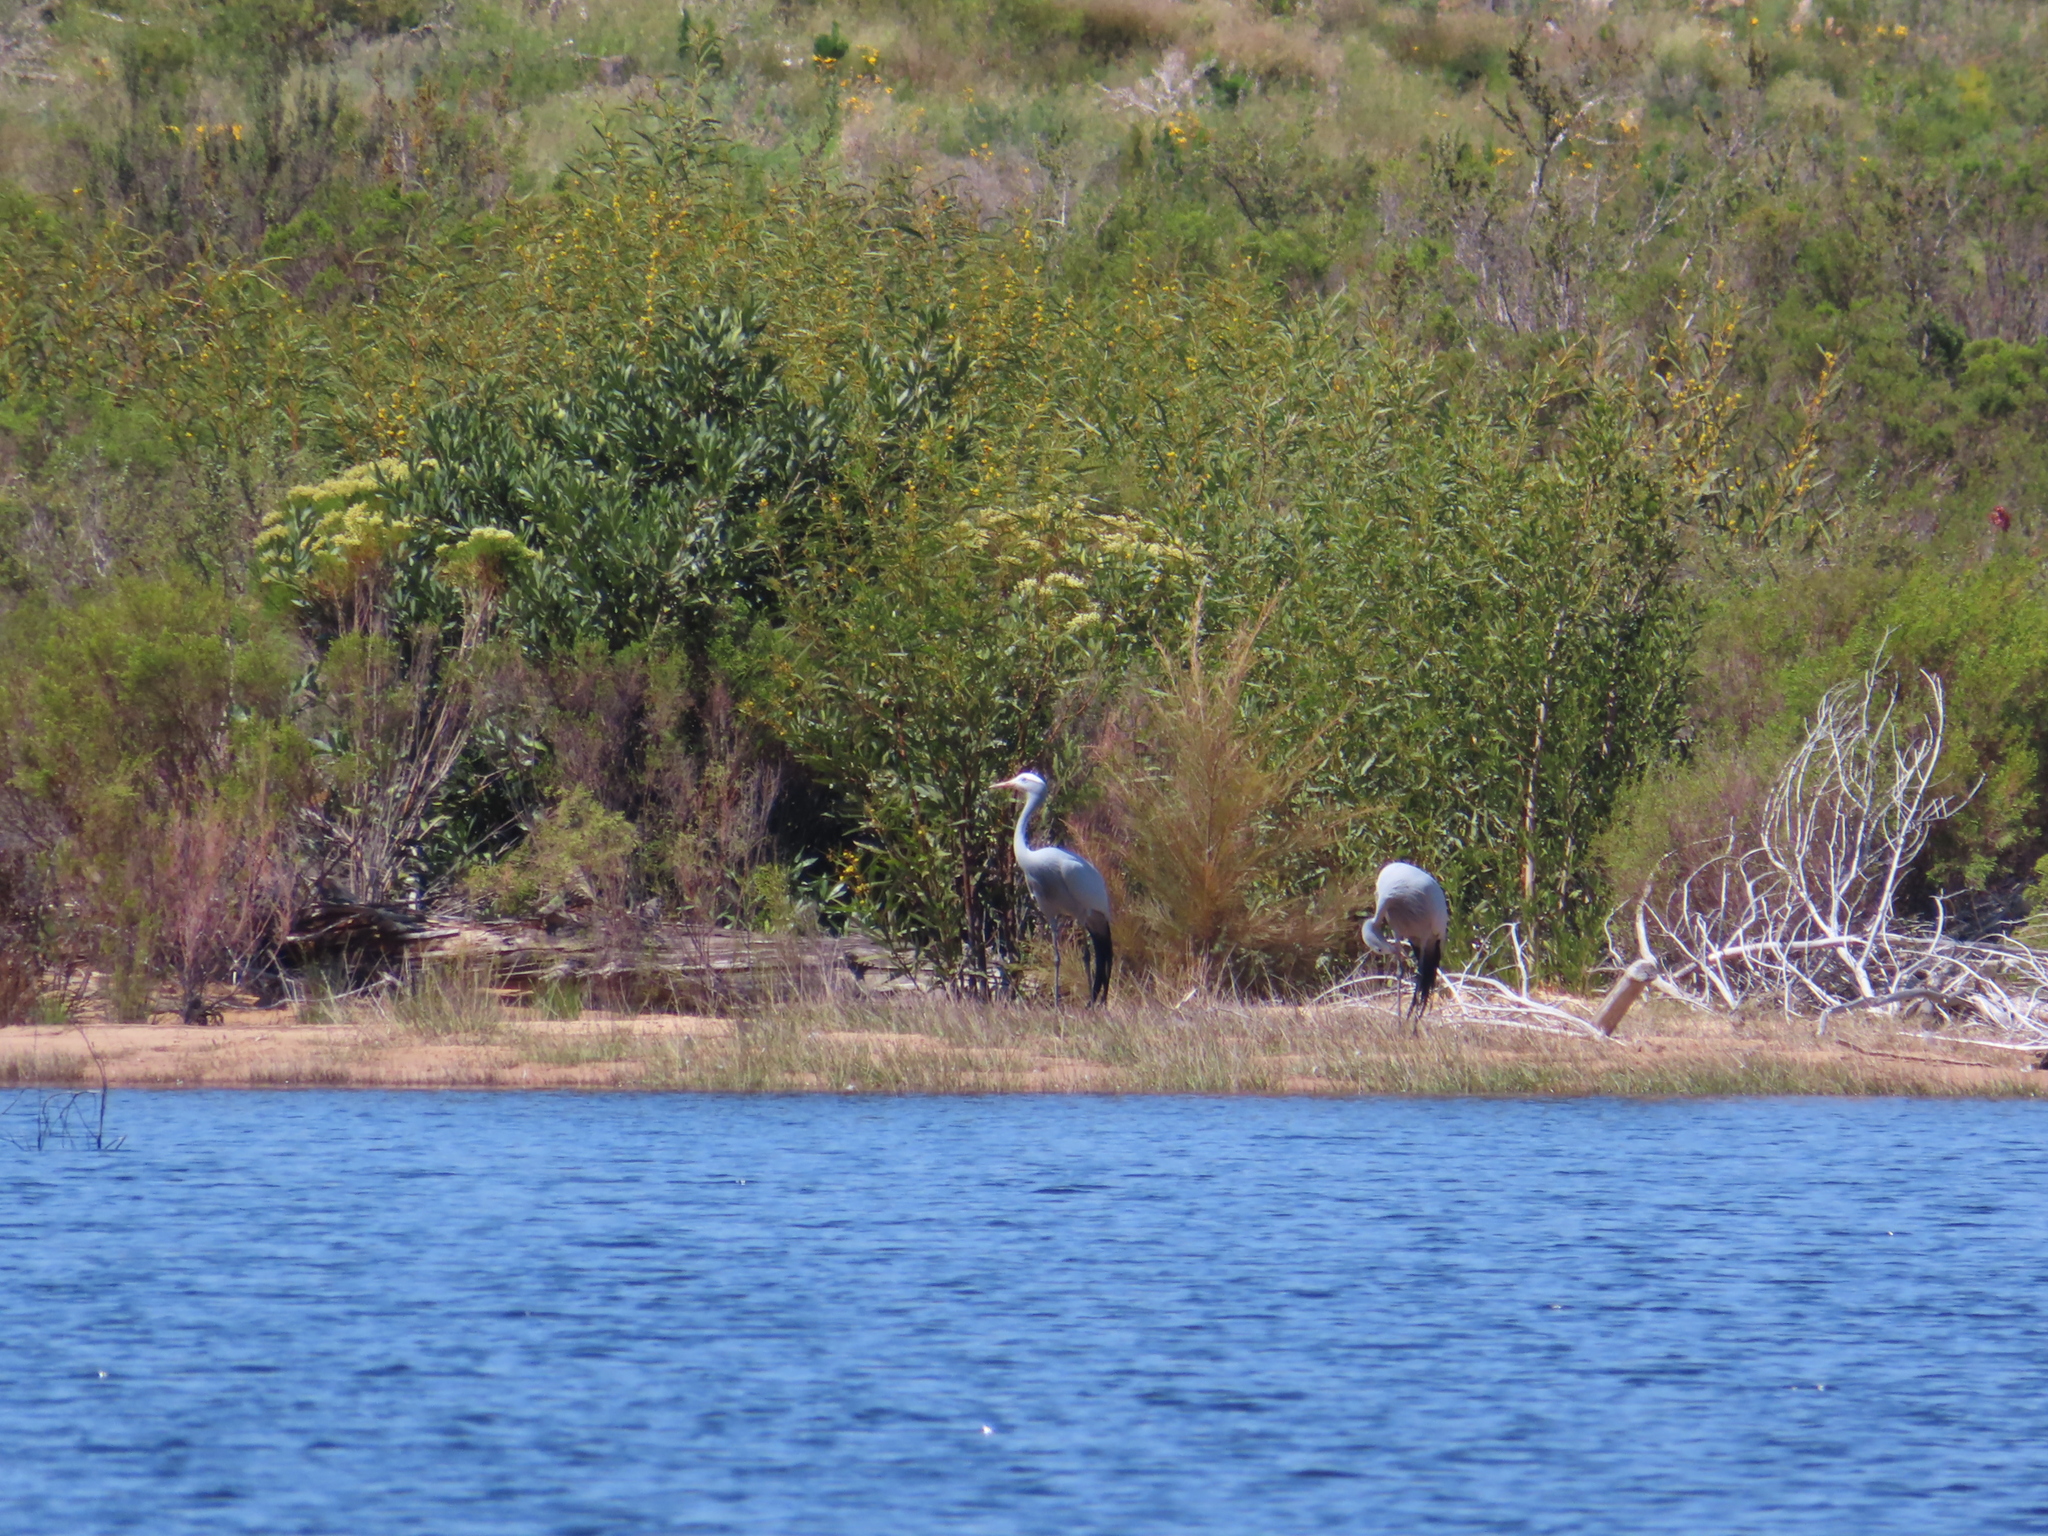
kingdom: Animalia
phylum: Chordata
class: Aves
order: Gruiformes
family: Gruidae
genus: Anthropoides
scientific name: Anthropoides paradiseus
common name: Blue crane
